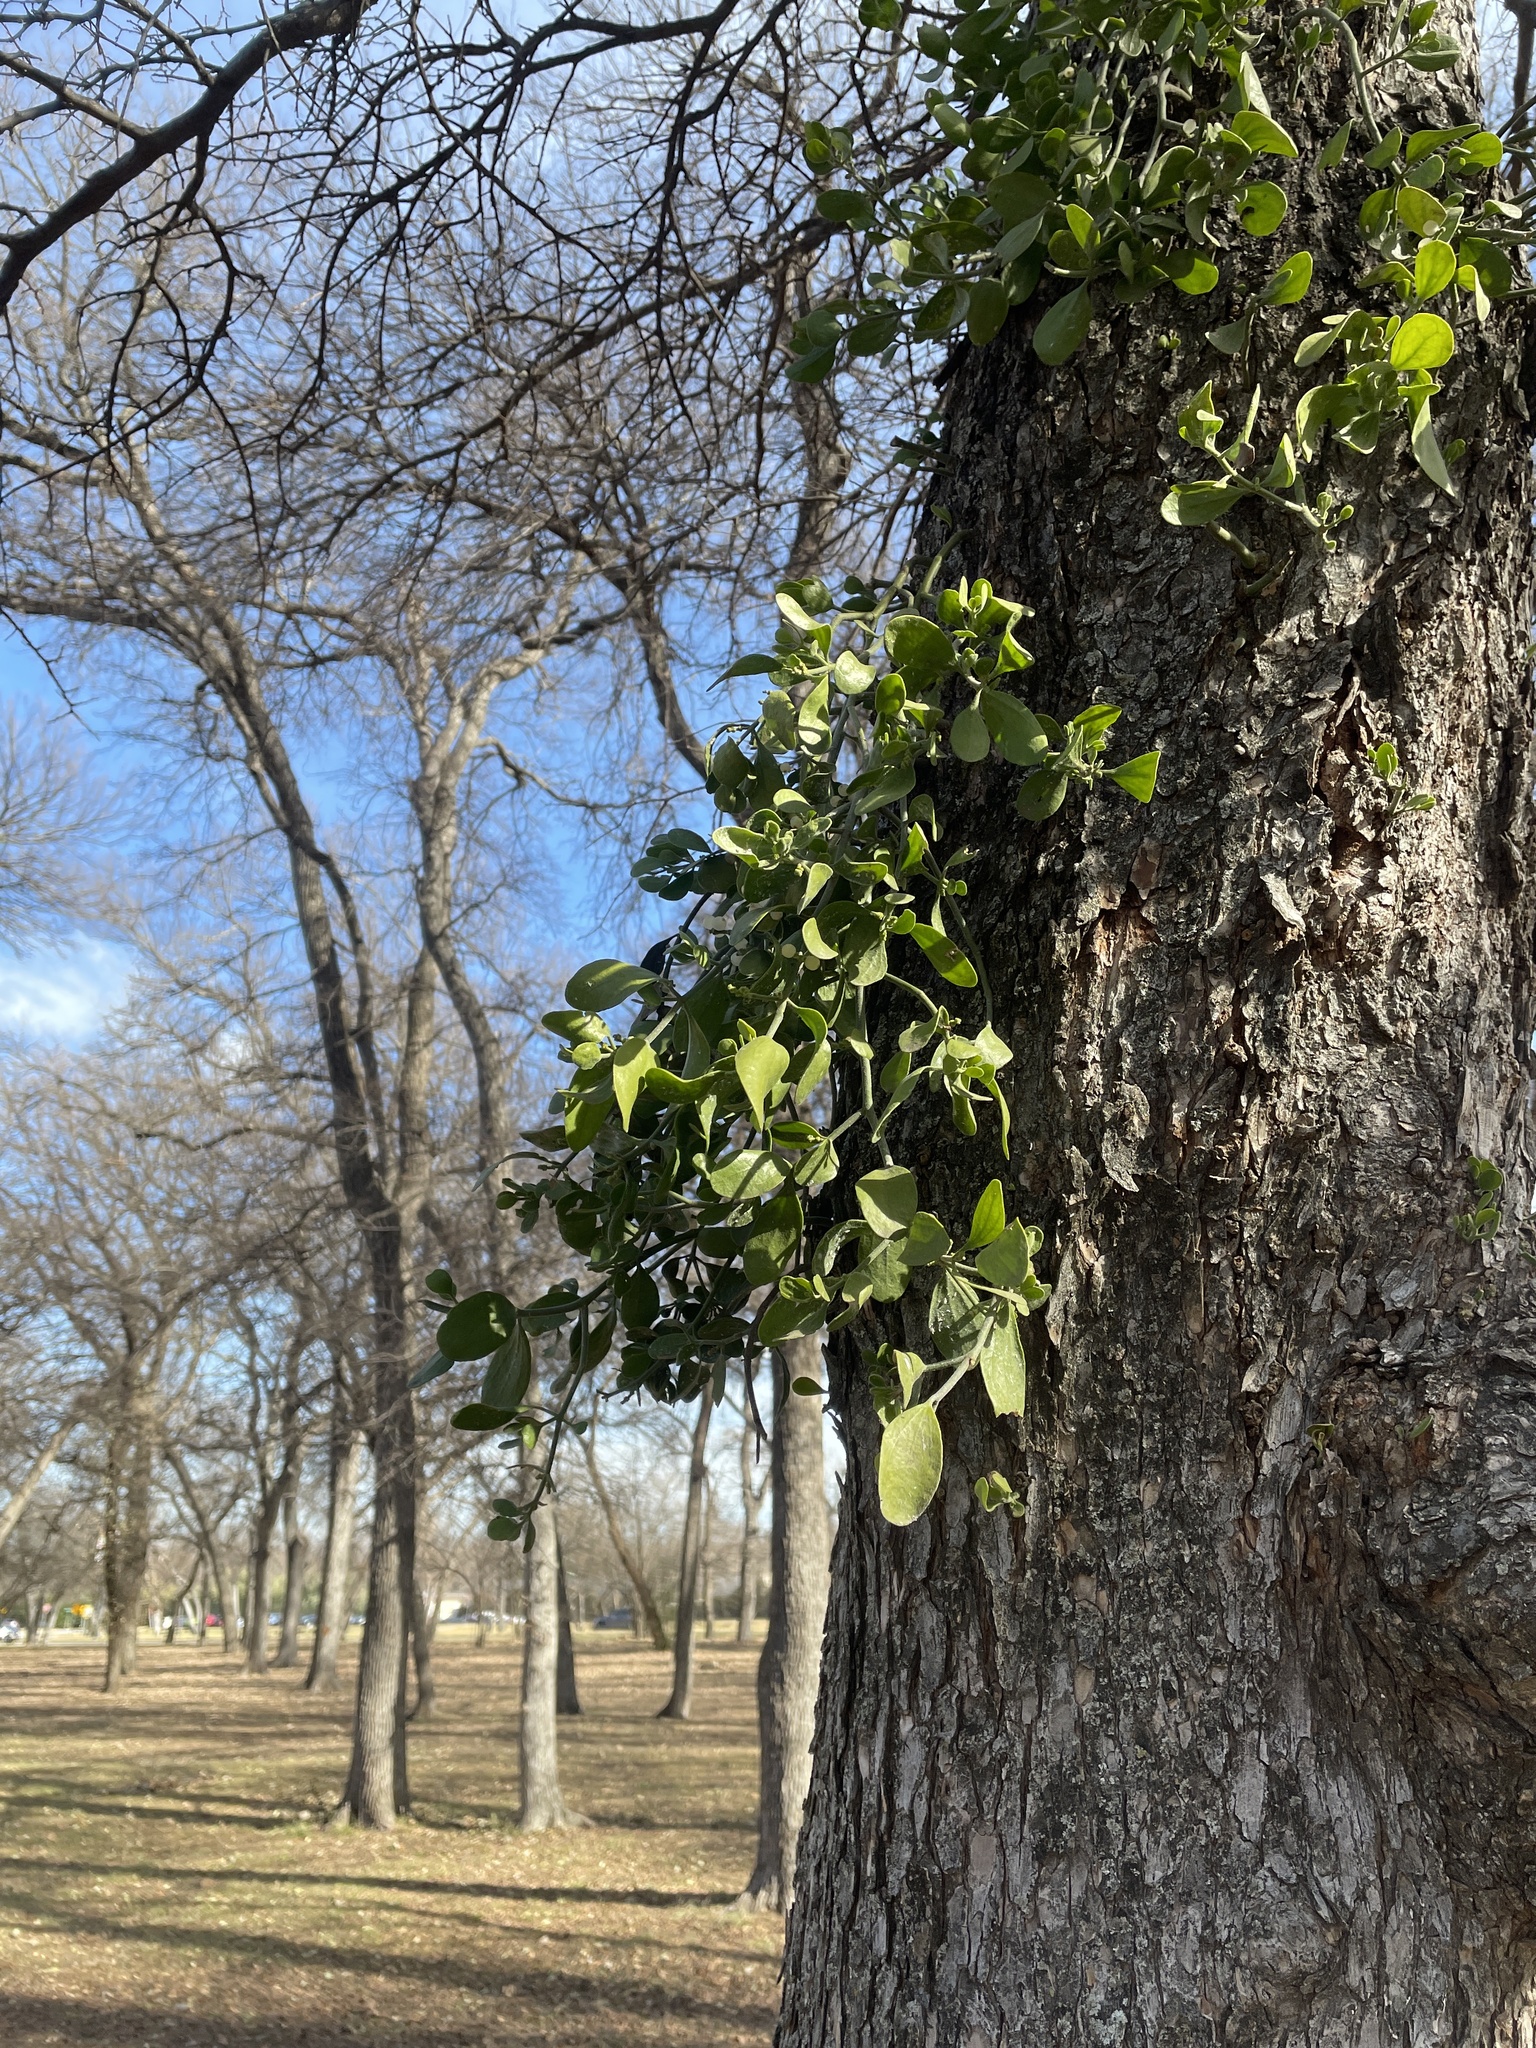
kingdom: Plantae
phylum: Tracheophyta
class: Magnoliopsida
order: Santalales
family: Viscaceae
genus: Phoradendron
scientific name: Phoradendron leucarpum
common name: Pacific mistletoe
